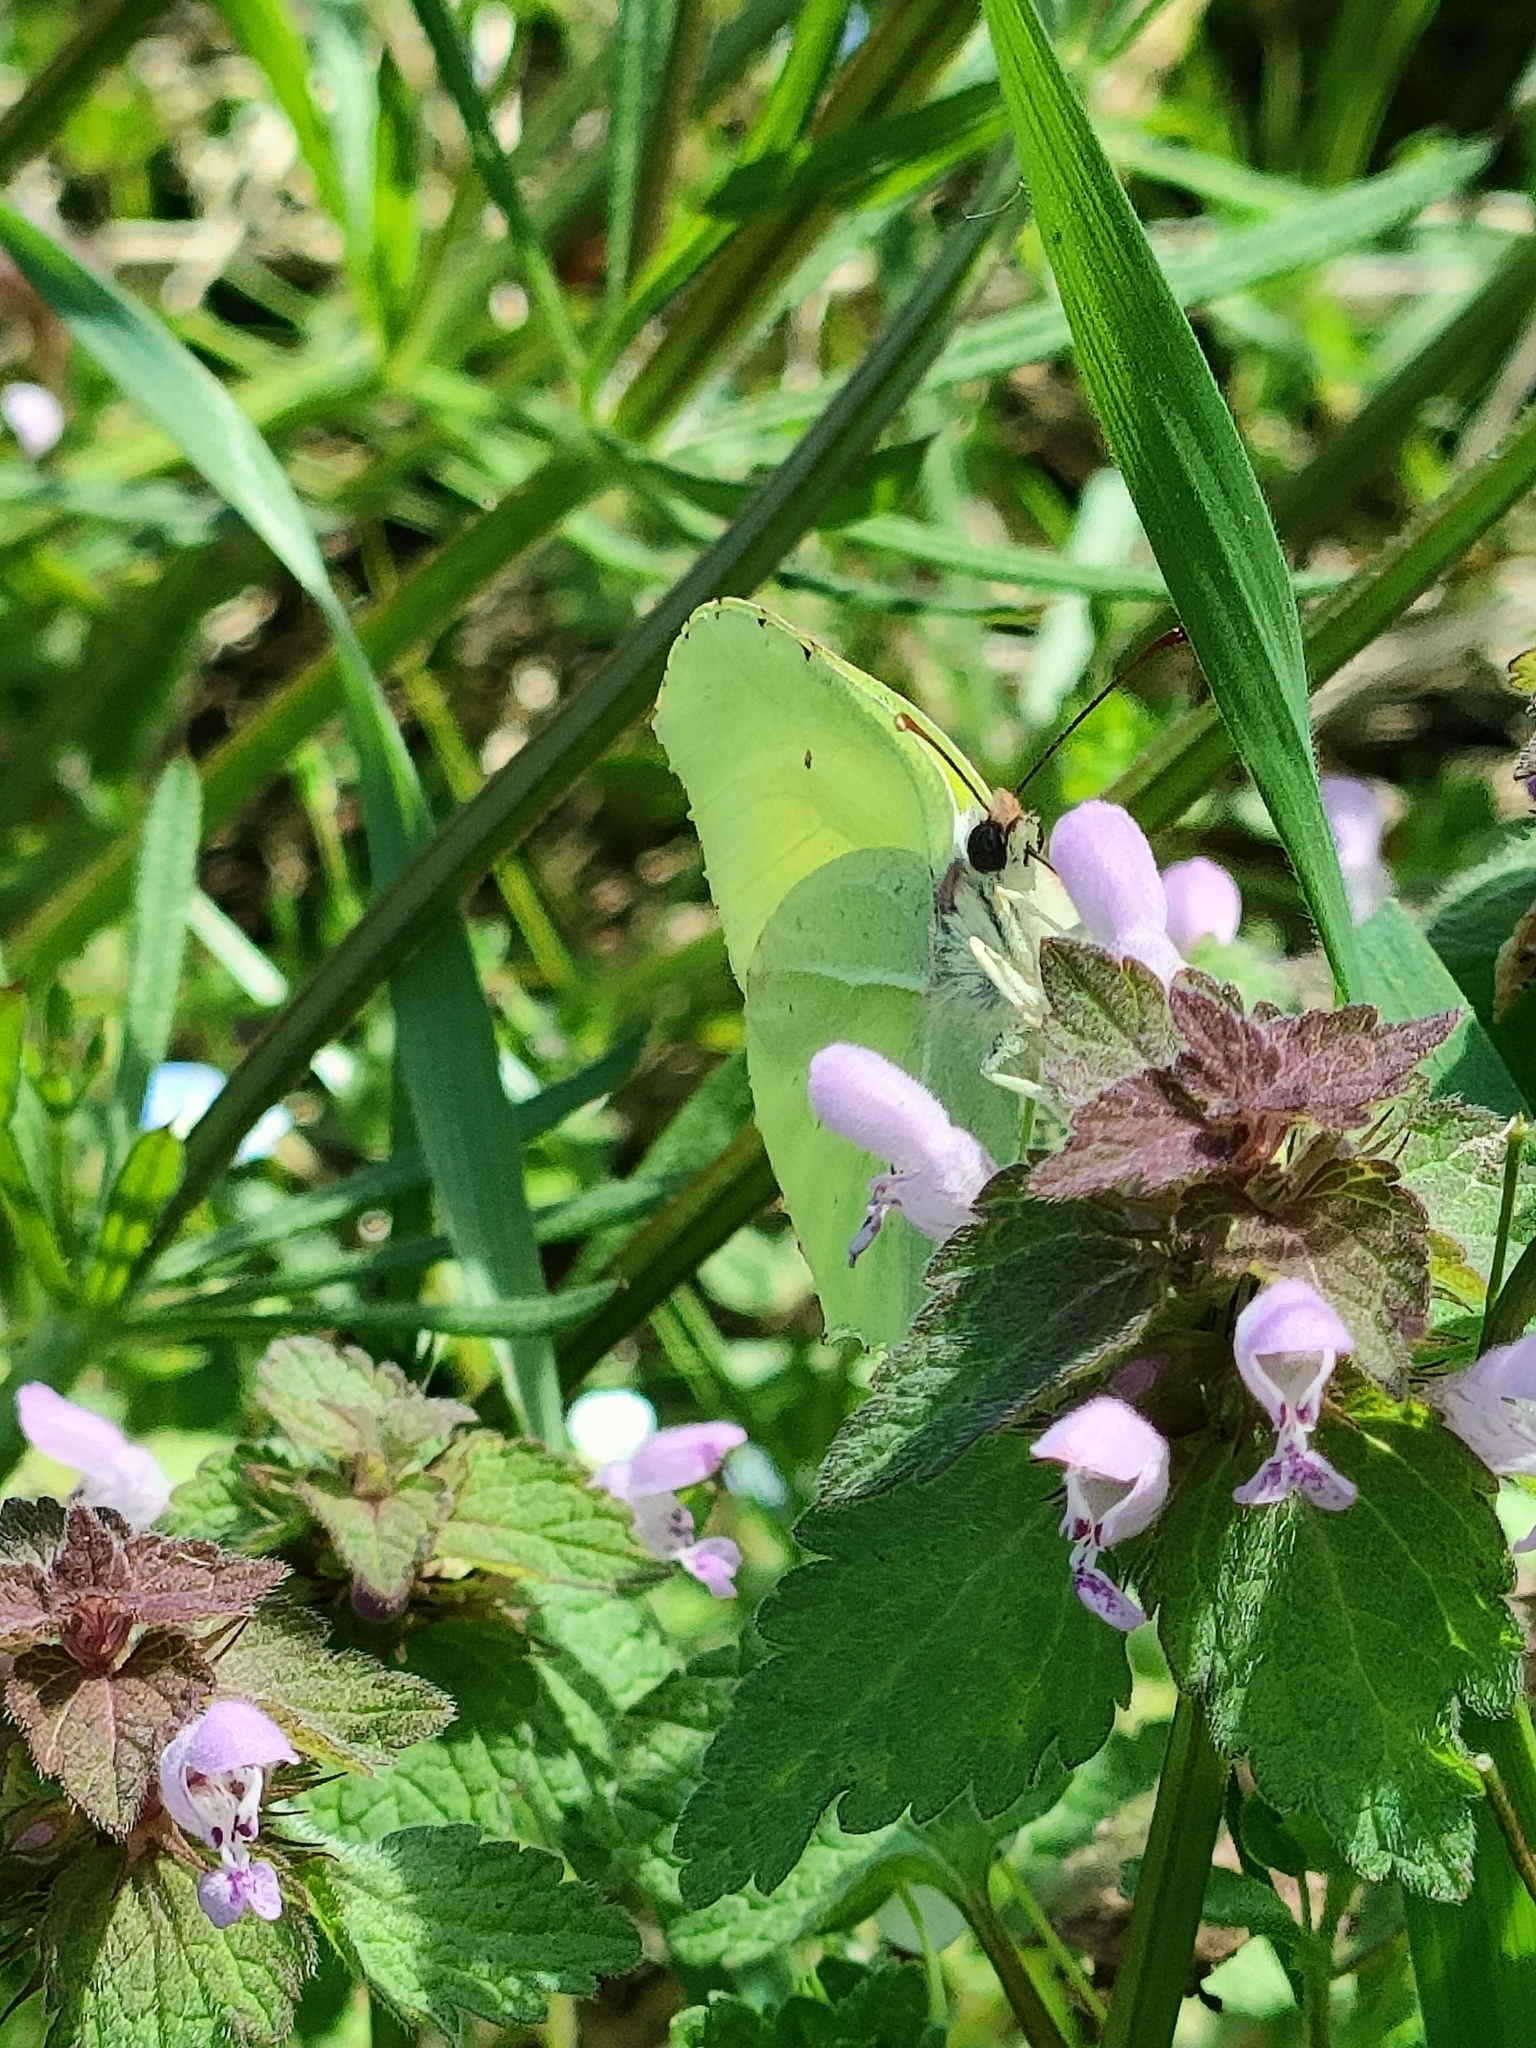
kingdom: Animalia
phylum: Arthropoda
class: Insecta
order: Lepidoptera
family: Pieridae
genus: Gonepteryx
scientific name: Gonepteryx rhamni
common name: Brimstone
